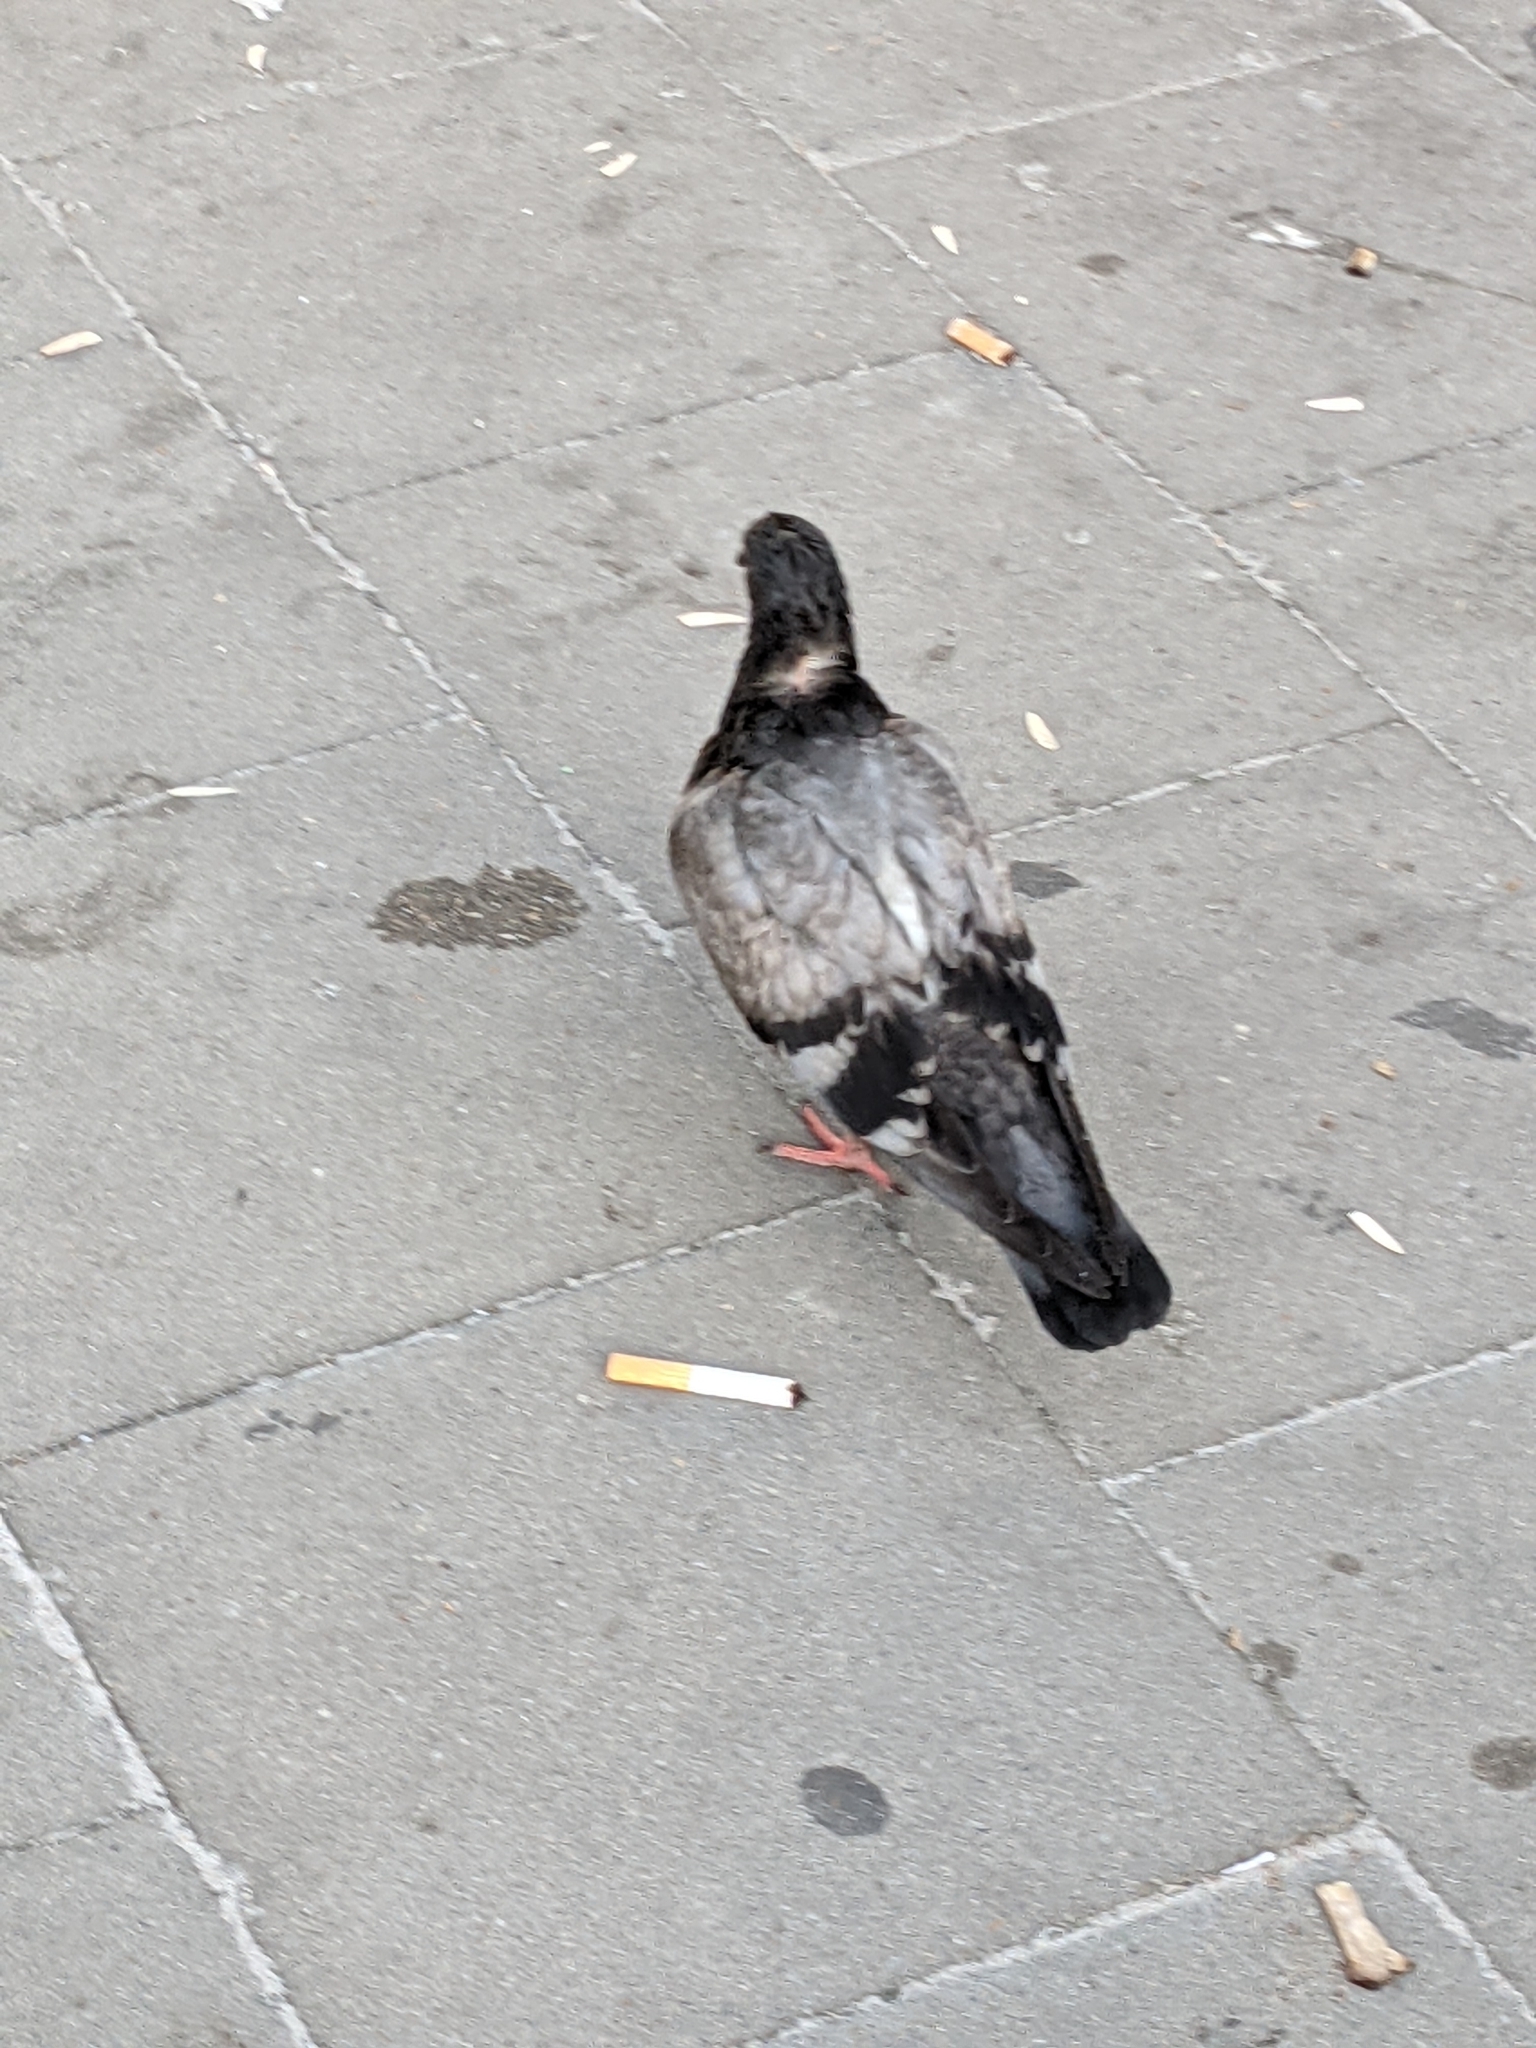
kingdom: Animalia
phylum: Chordata
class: Aves
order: Columbiformes
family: Columbidae
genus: Columba
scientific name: Columba livia
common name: Rock pigeon
